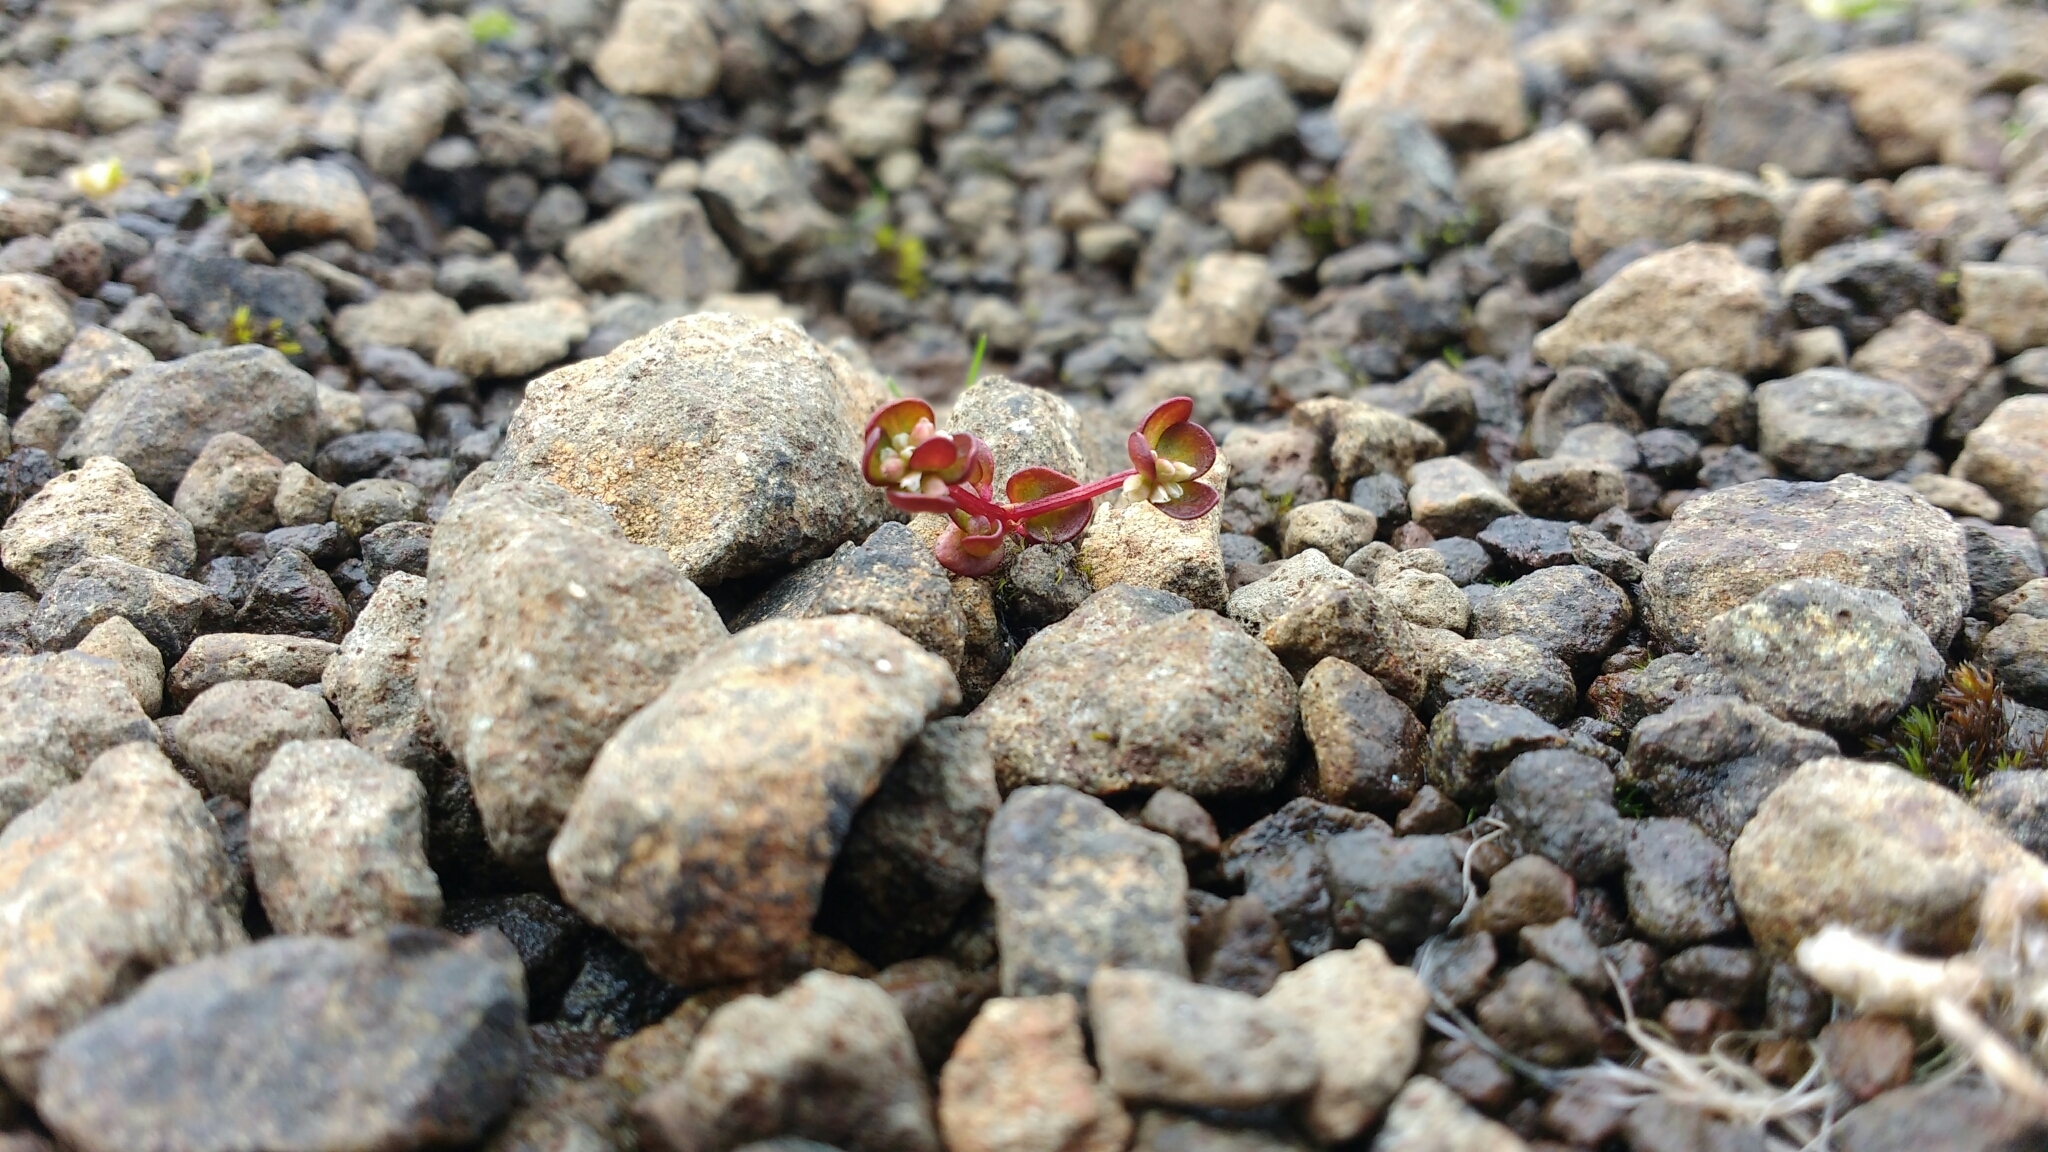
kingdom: Plantae
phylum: Tracheophyta
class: Magnoliopsida
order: Caryophyllales
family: Polygonaceae
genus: Koenigia
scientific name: Koenigia islandica
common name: Iceland-purslane
